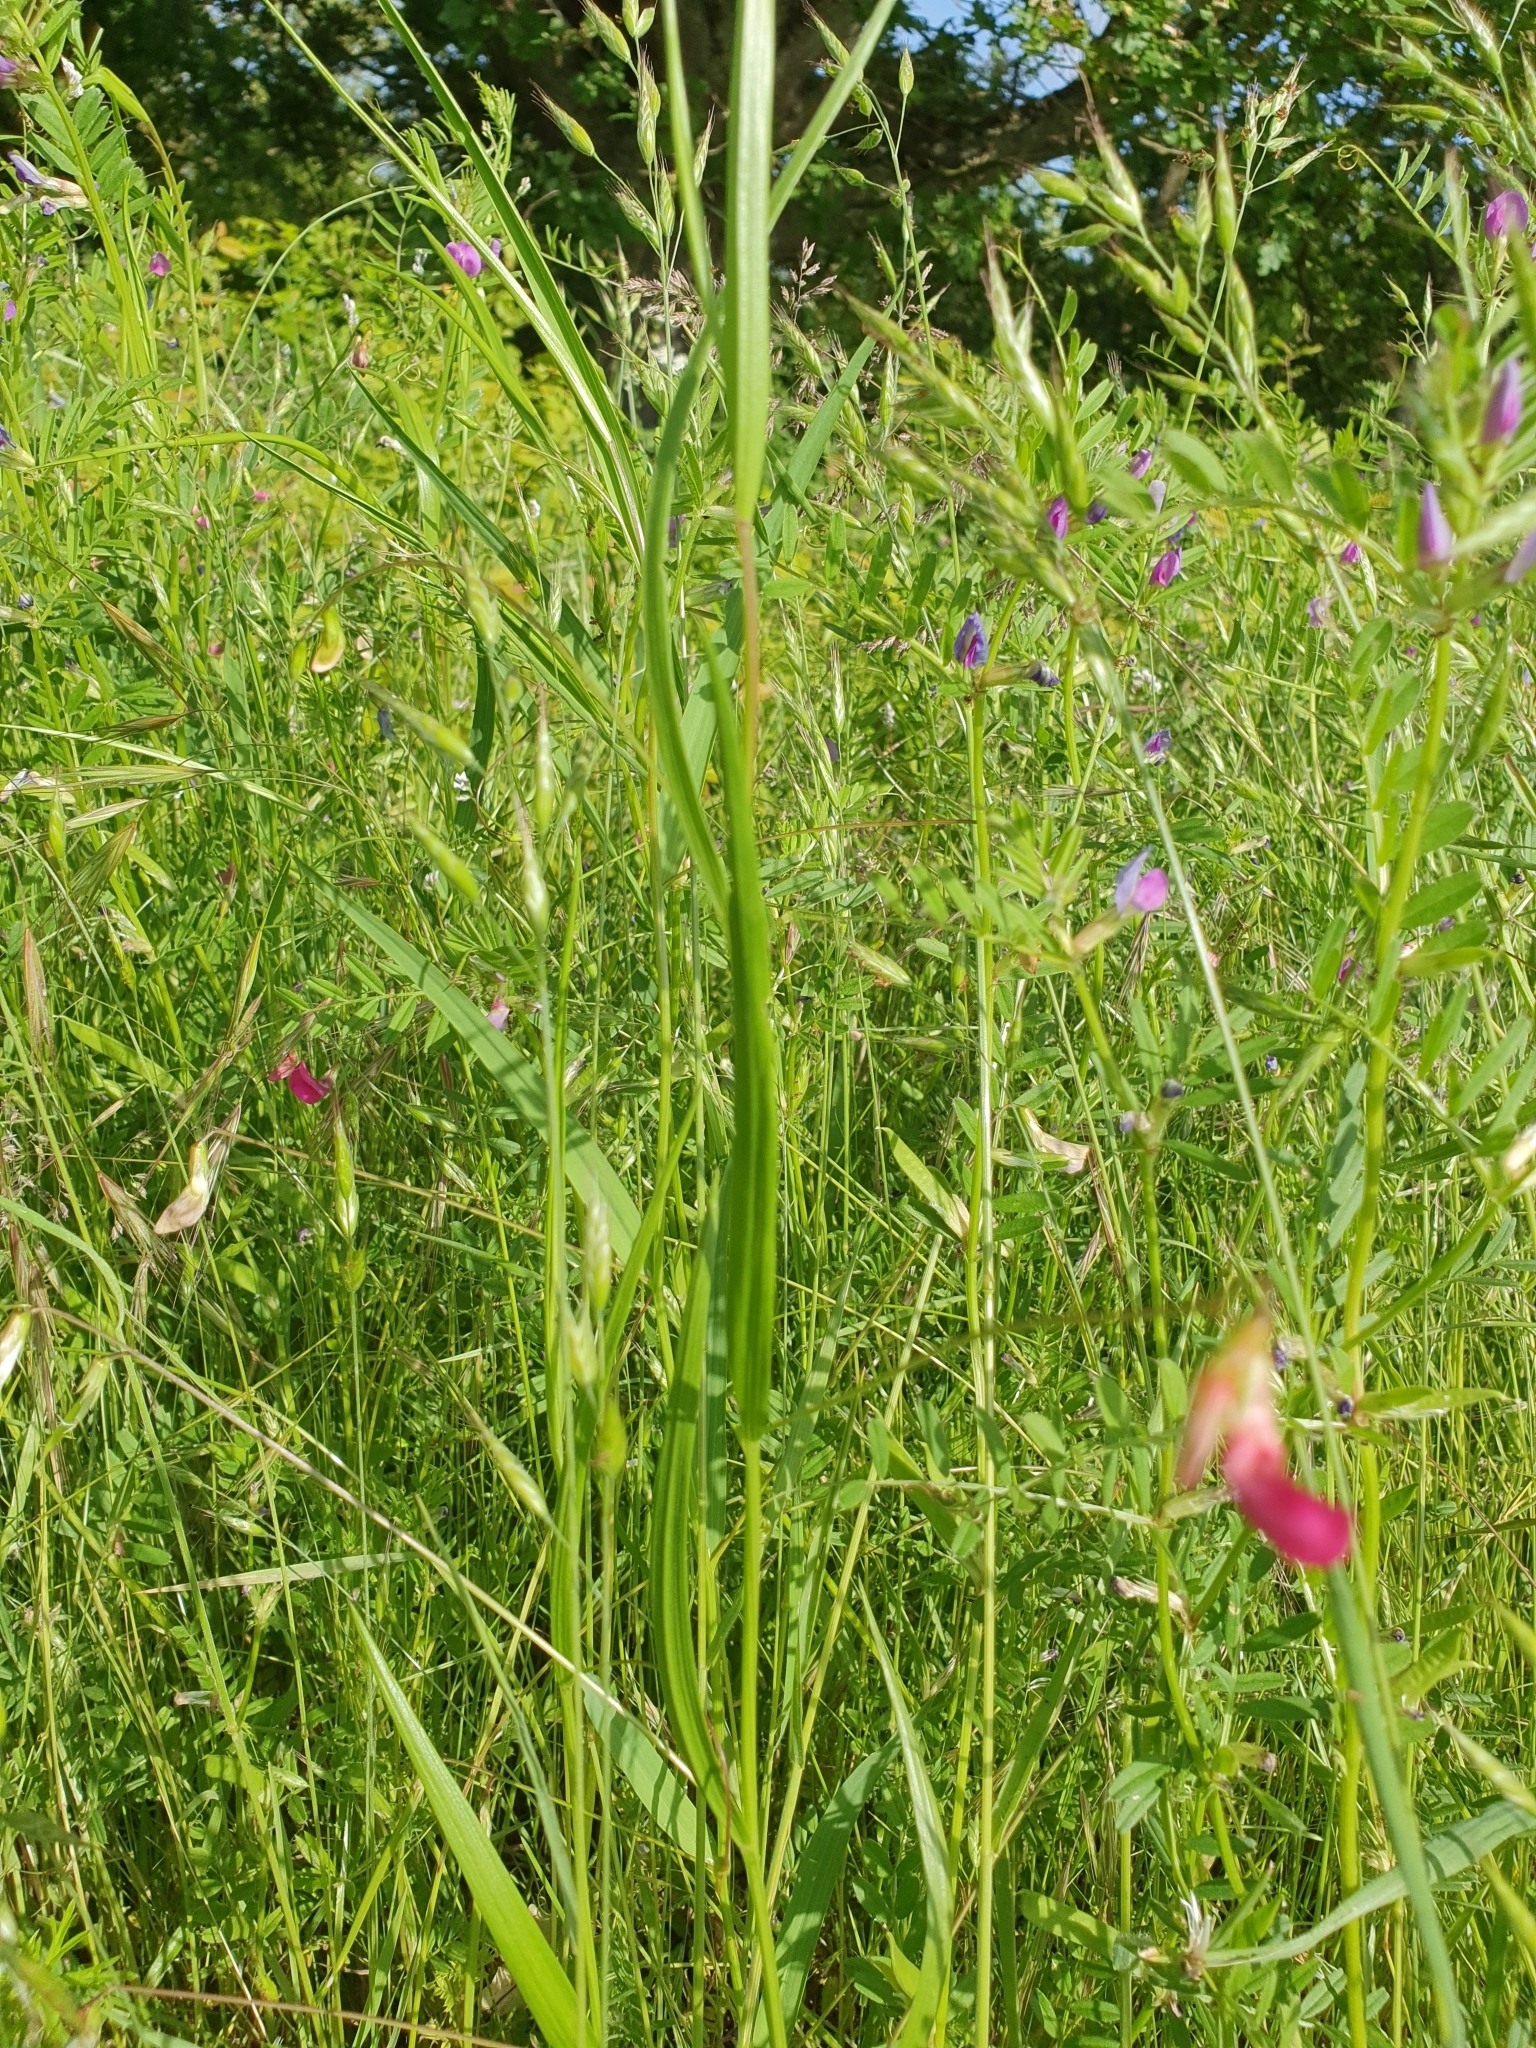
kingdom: Plantae
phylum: Tracheophyta
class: Magnoliopsida
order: Fabales
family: Fabaceae
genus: Lathyrus
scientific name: Lathyrus nissolia
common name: Grass vetchling
